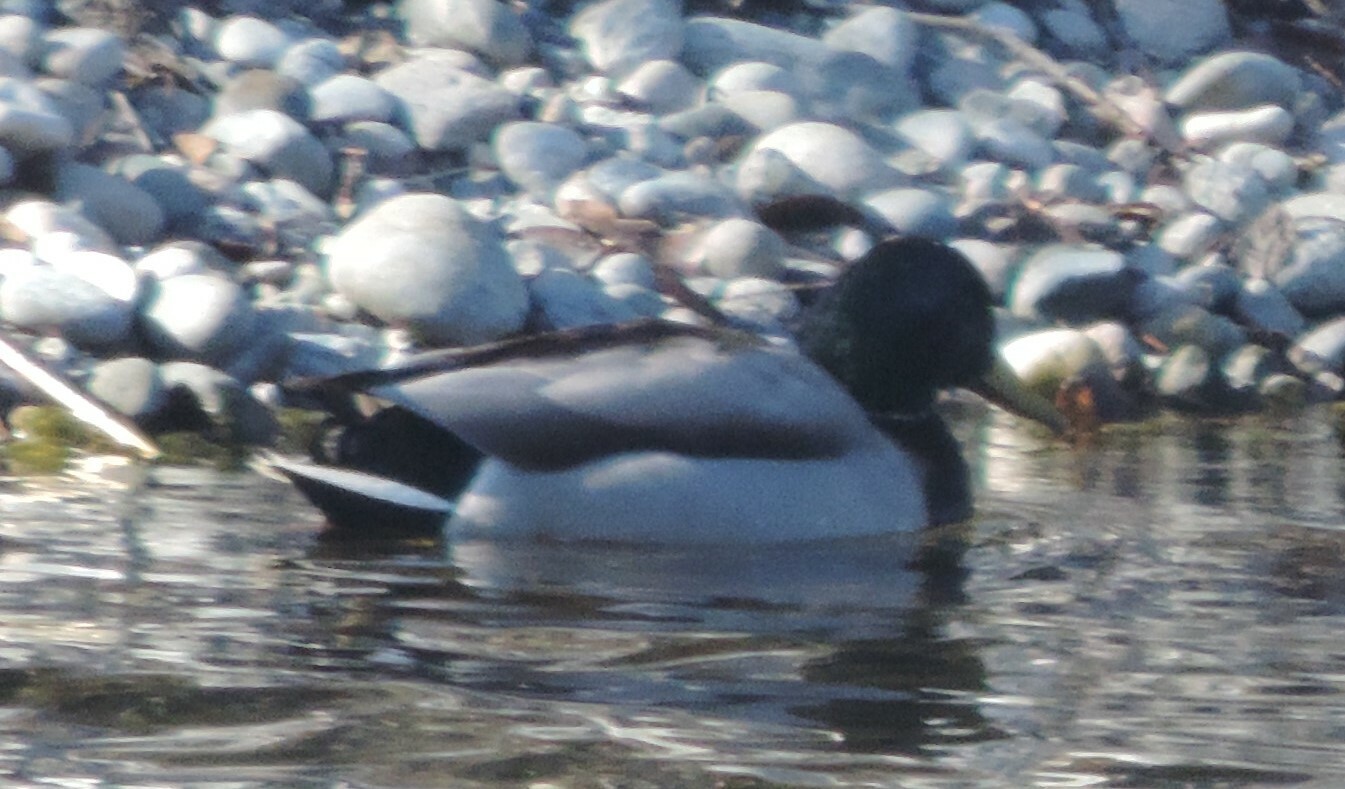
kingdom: Animalia
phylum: Chordata
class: Aves
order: Anseriformes
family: Anatidae
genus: Anas
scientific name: Anas platyrhynchos
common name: Mallard
